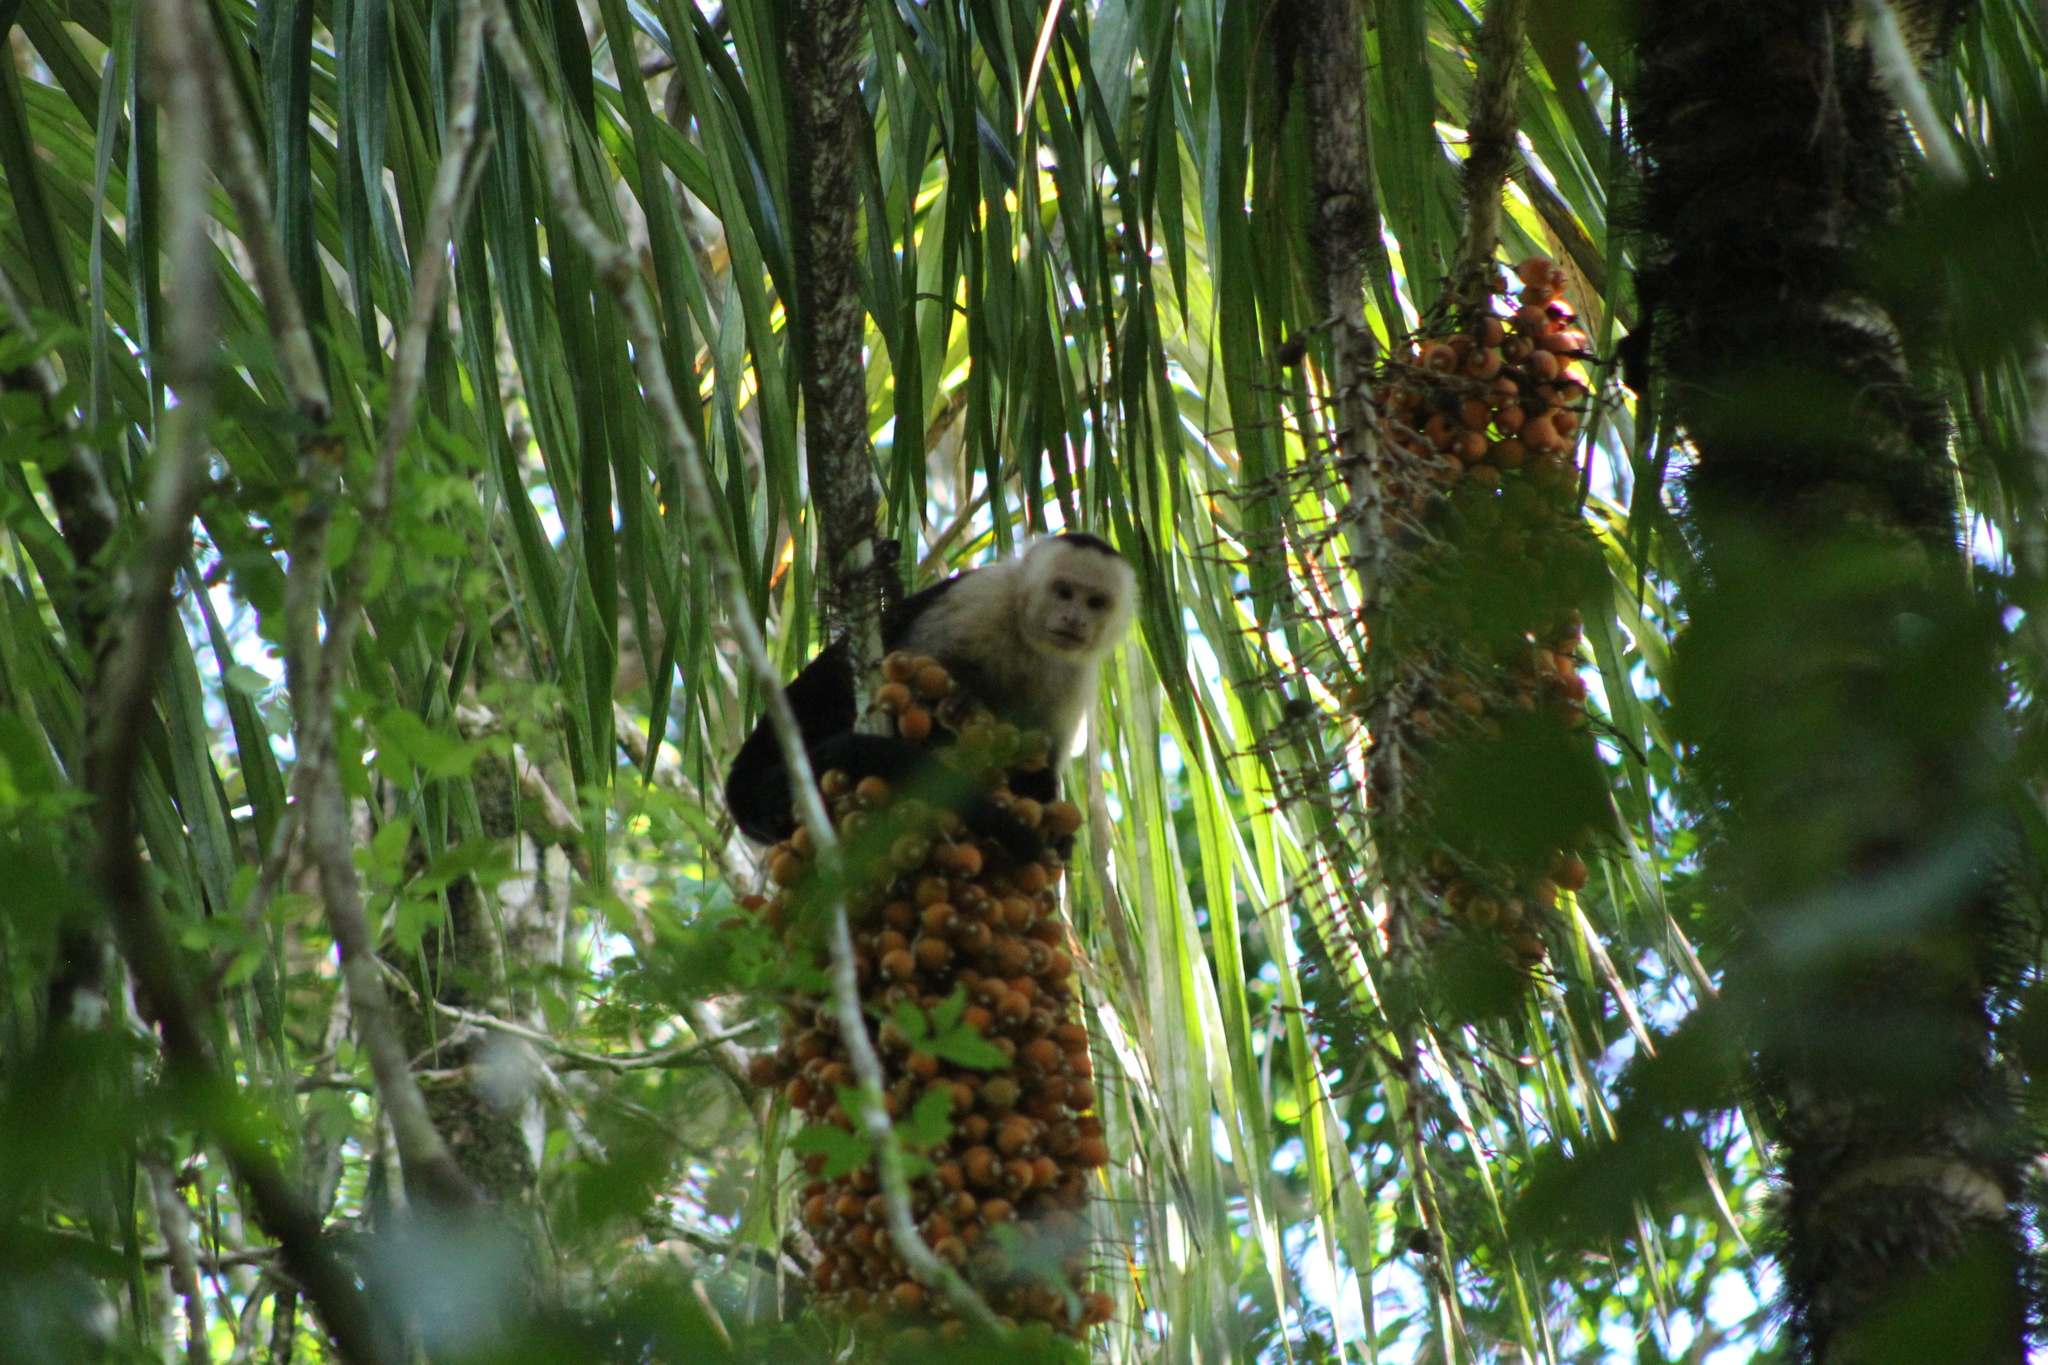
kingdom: Animalia
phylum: Chordata
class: Mammalia
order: Primates
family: Cebidae
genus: Cebus
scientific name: Cebus imitator
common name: Panamanian white-faced capuchin
